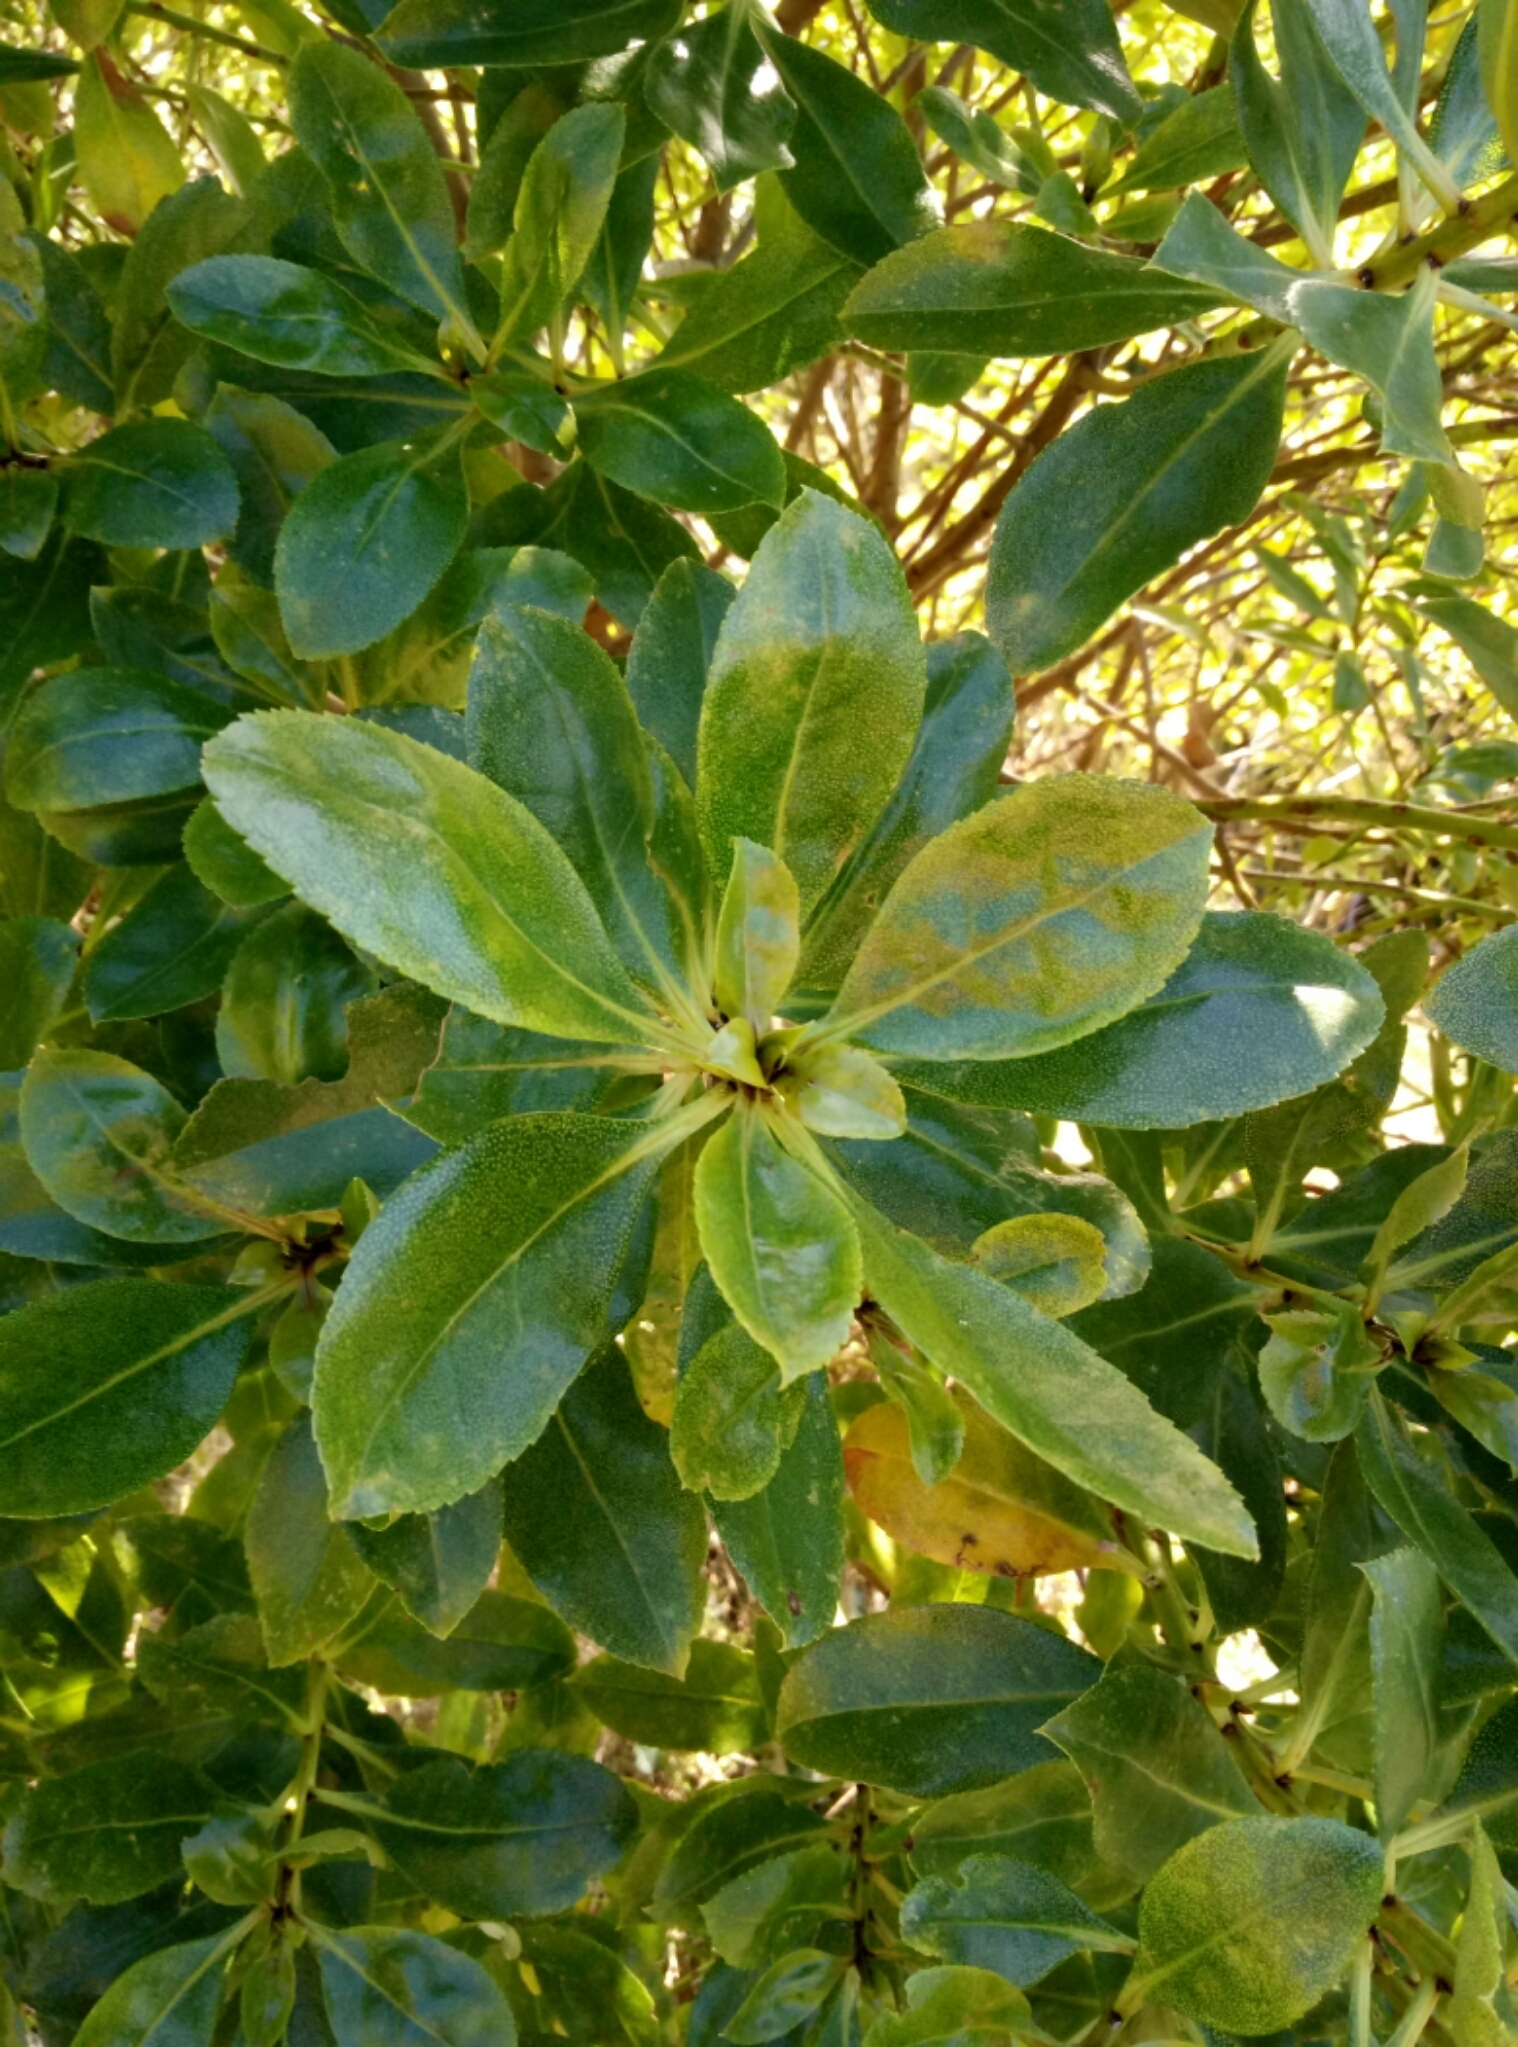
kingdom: Plantae
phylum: Tracheophyta
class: Magnoliopsida
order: Lamiales
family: Scrophulariaceae
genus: Myoporum
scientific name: Myoporum laetum
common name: Ngaio tree
